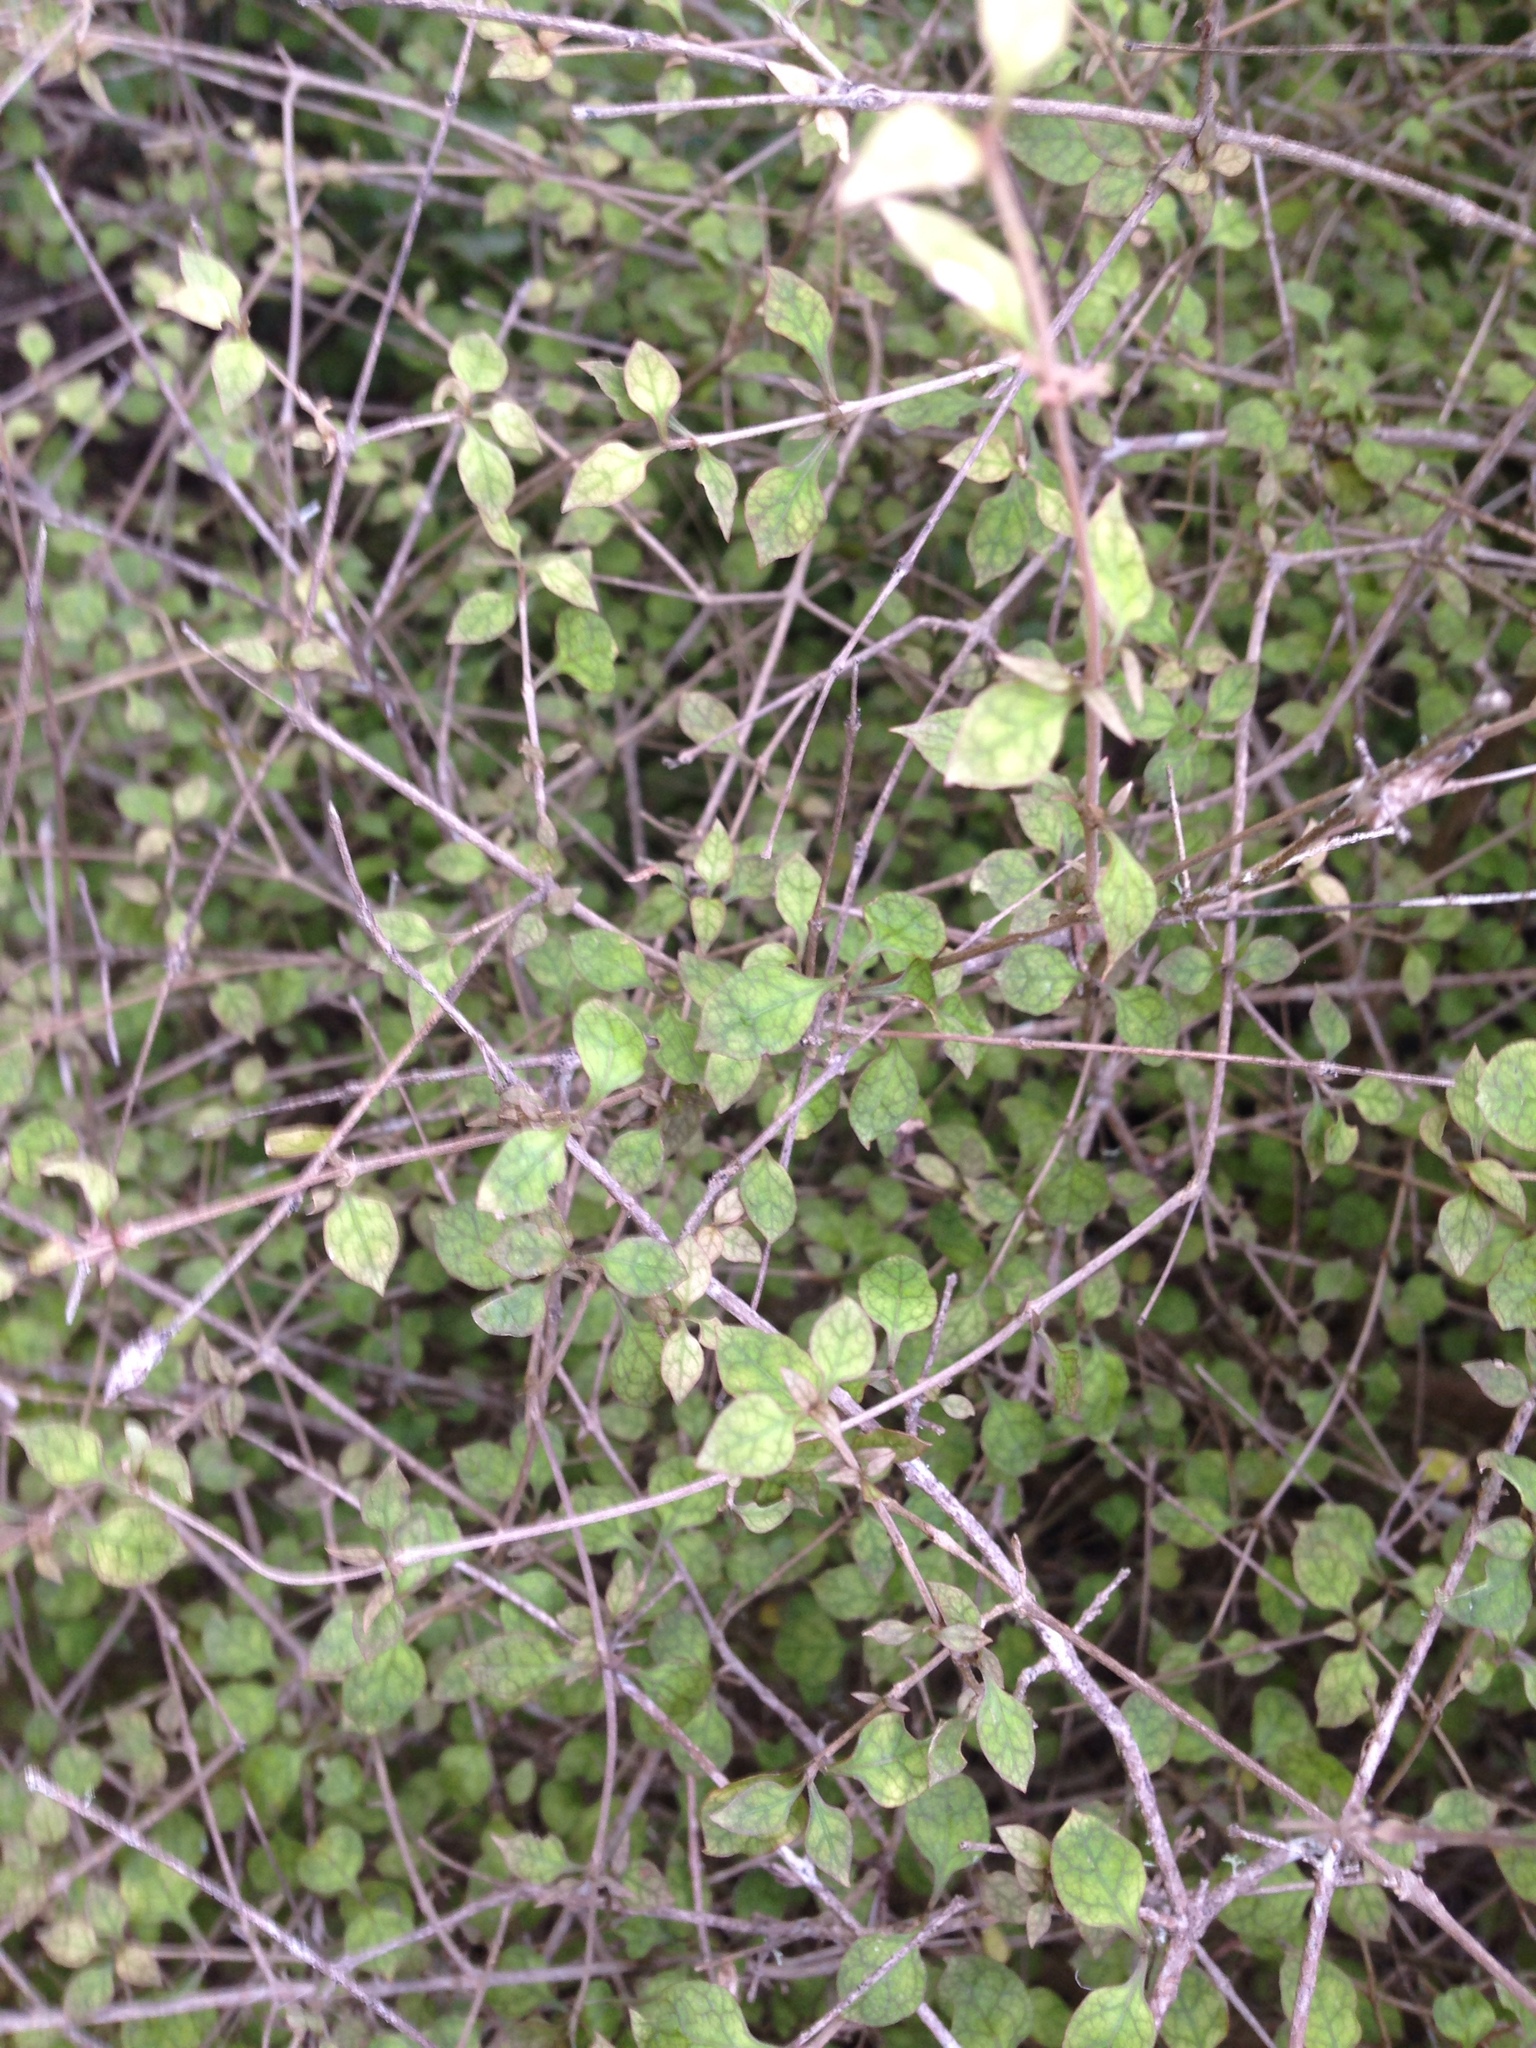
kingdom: Plantae
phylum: Tracheophyta
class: Magnoliopsida
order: Gentianales
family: Rubiaceae
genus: Coprosma
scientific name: Coprosma areolata
